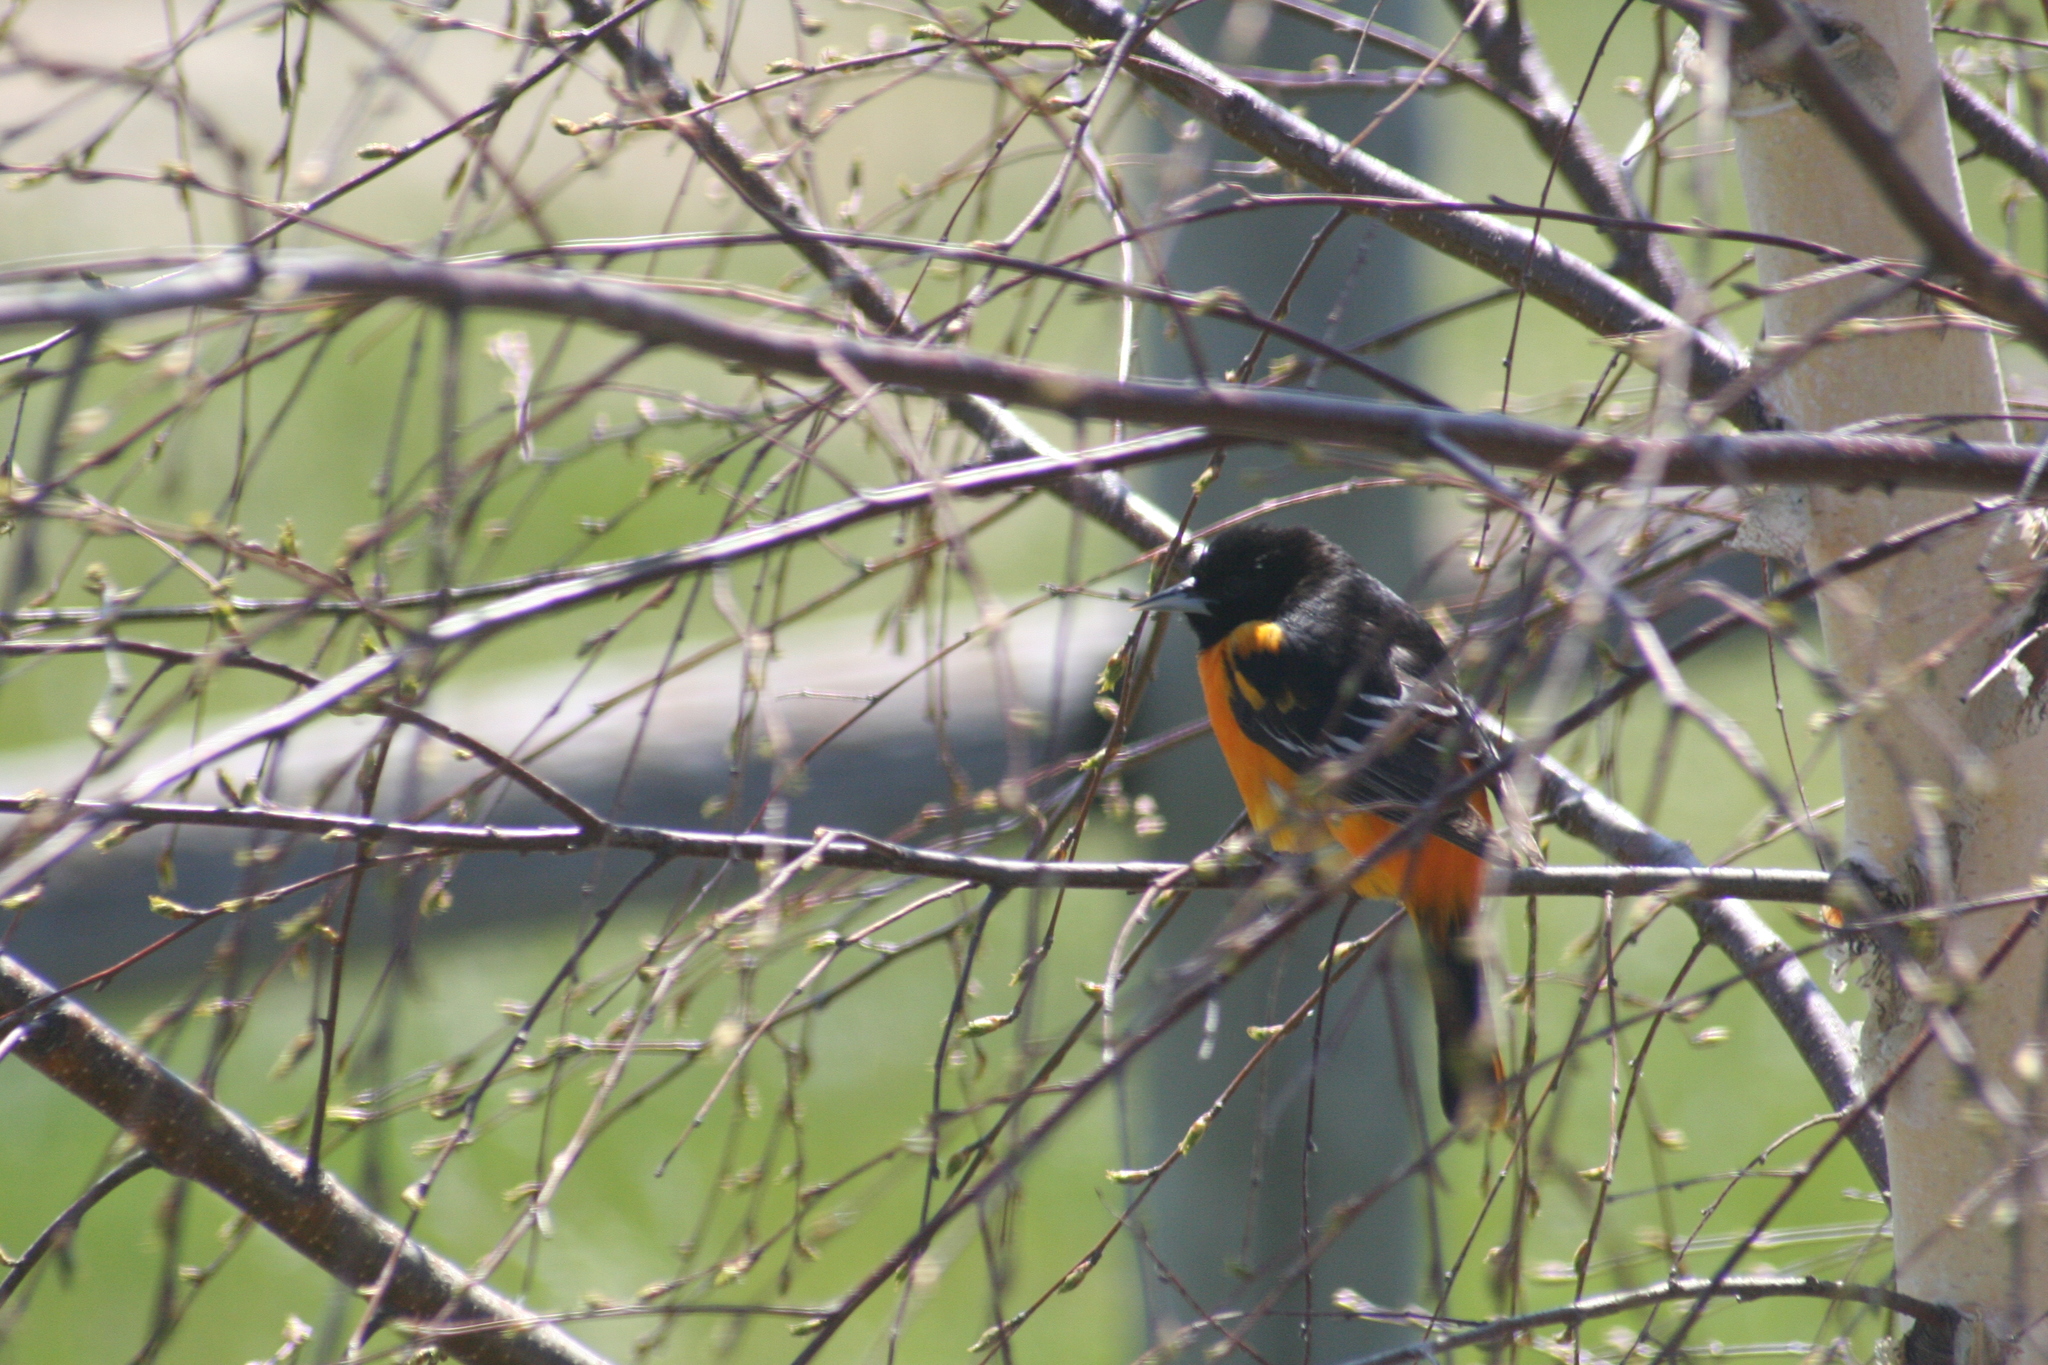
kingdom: Animalia
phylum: Chordata
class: Aves
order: Passeriformes
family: Icteridae
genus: Icterus
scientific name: Icterus galbula
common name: Baltimore oriole
